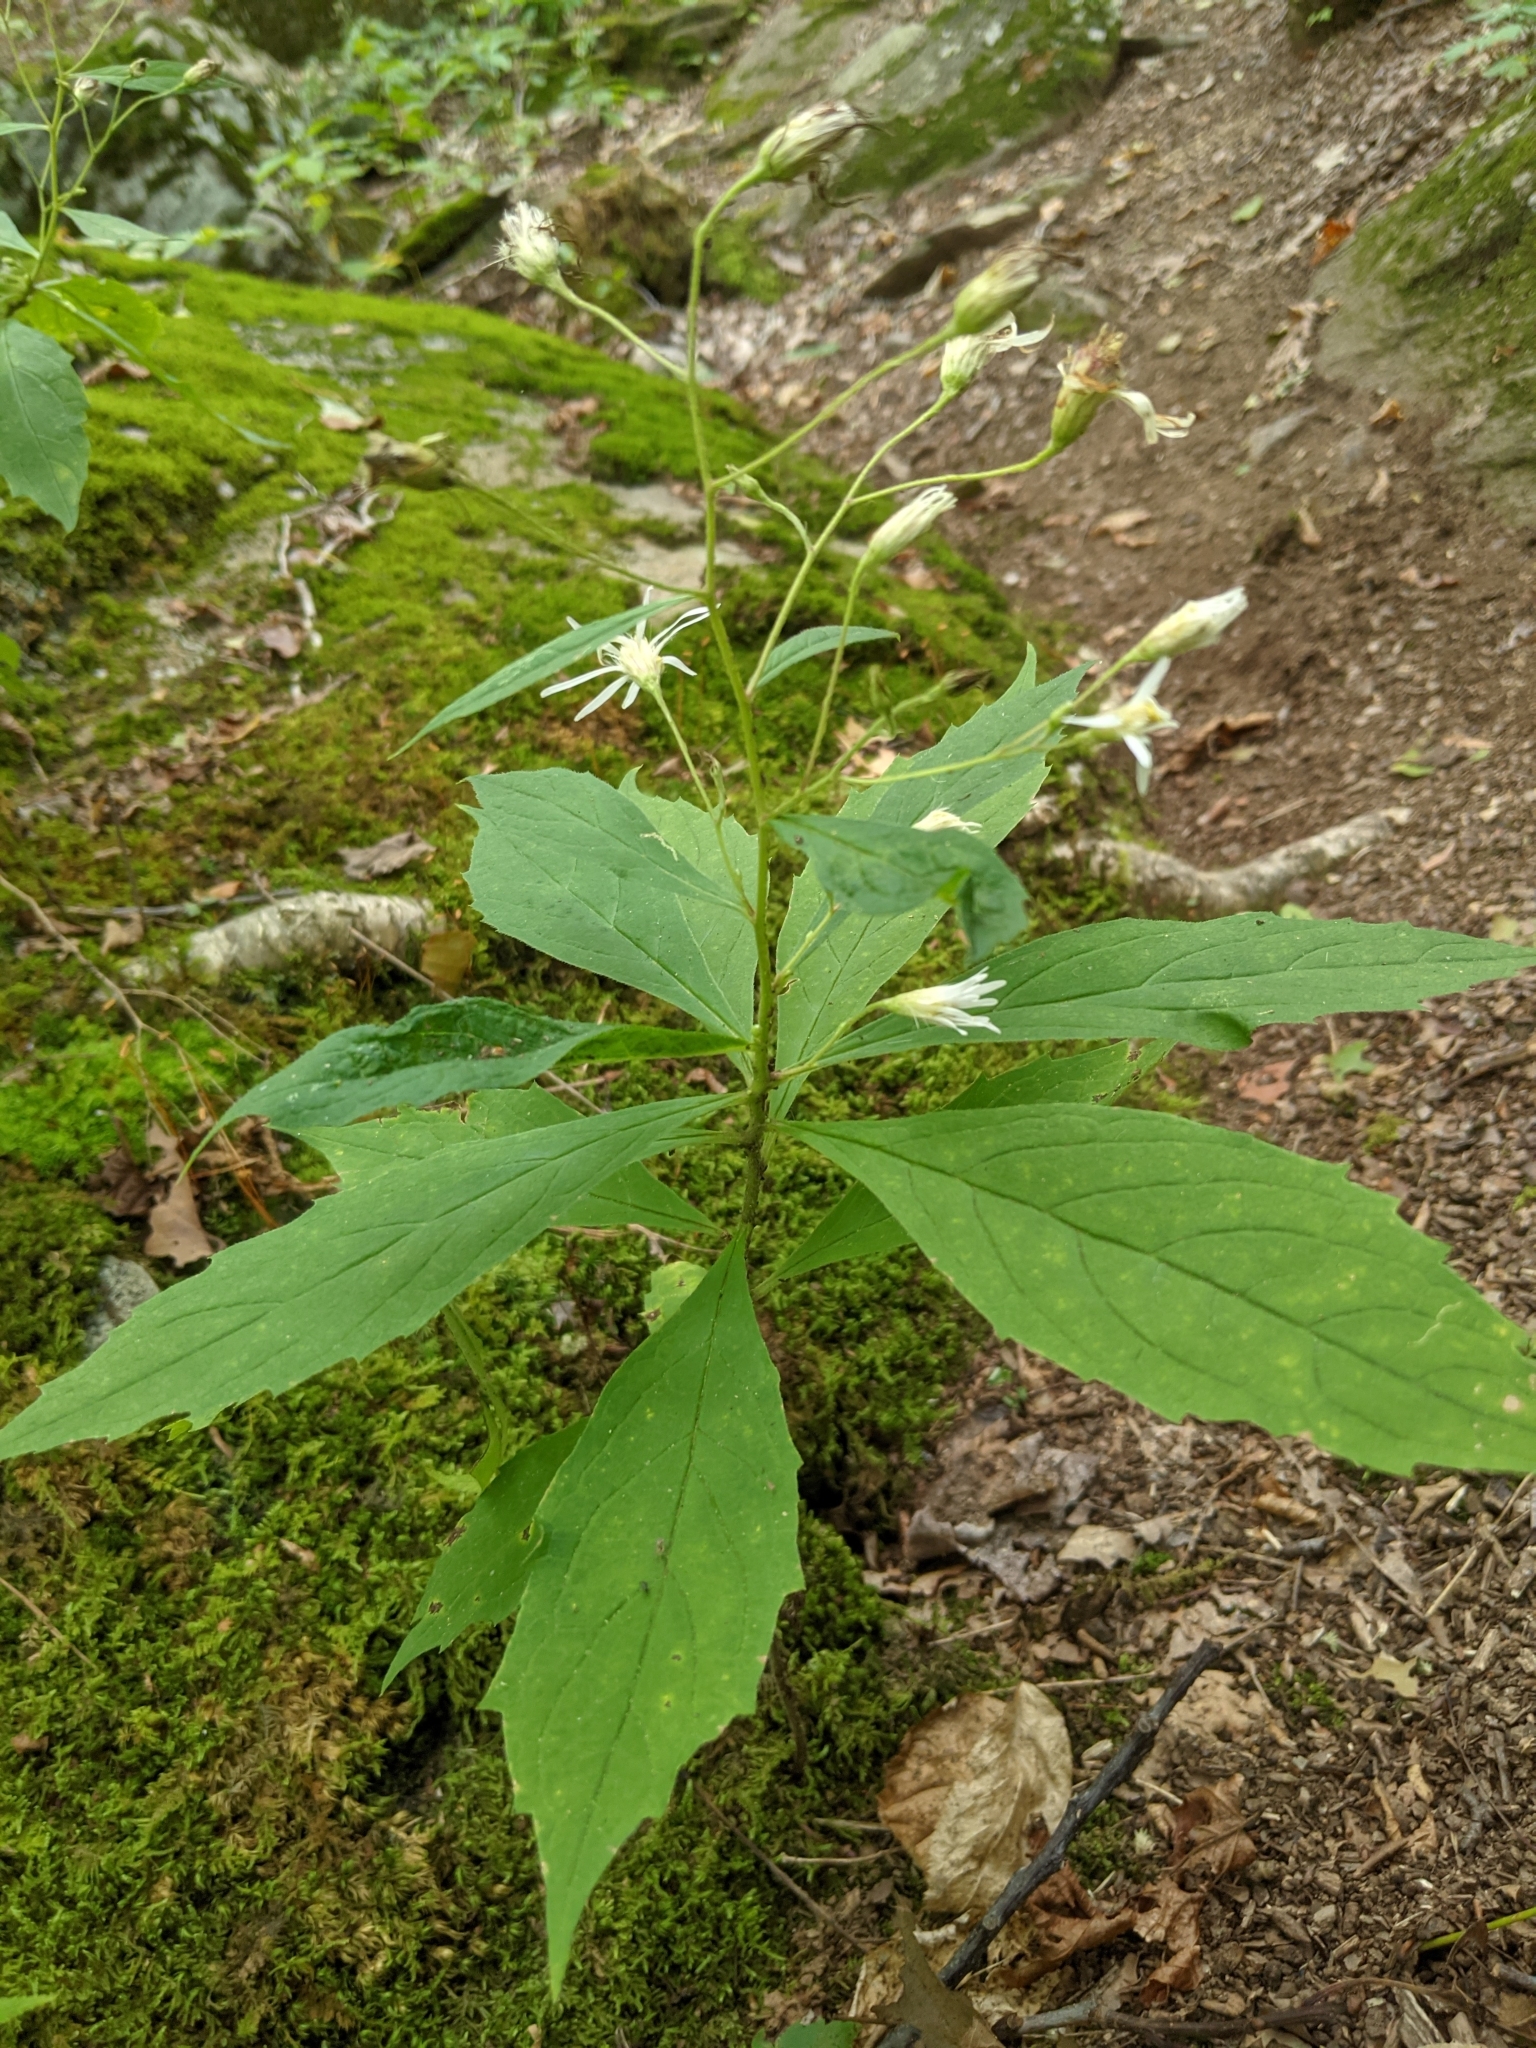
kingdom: Plantae
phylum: Tracheophyta
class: Magnoliopsida
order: Asterales
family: Asteraceae
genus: Oclemena
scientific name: Oclemena acuminata
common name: Mountain aster
